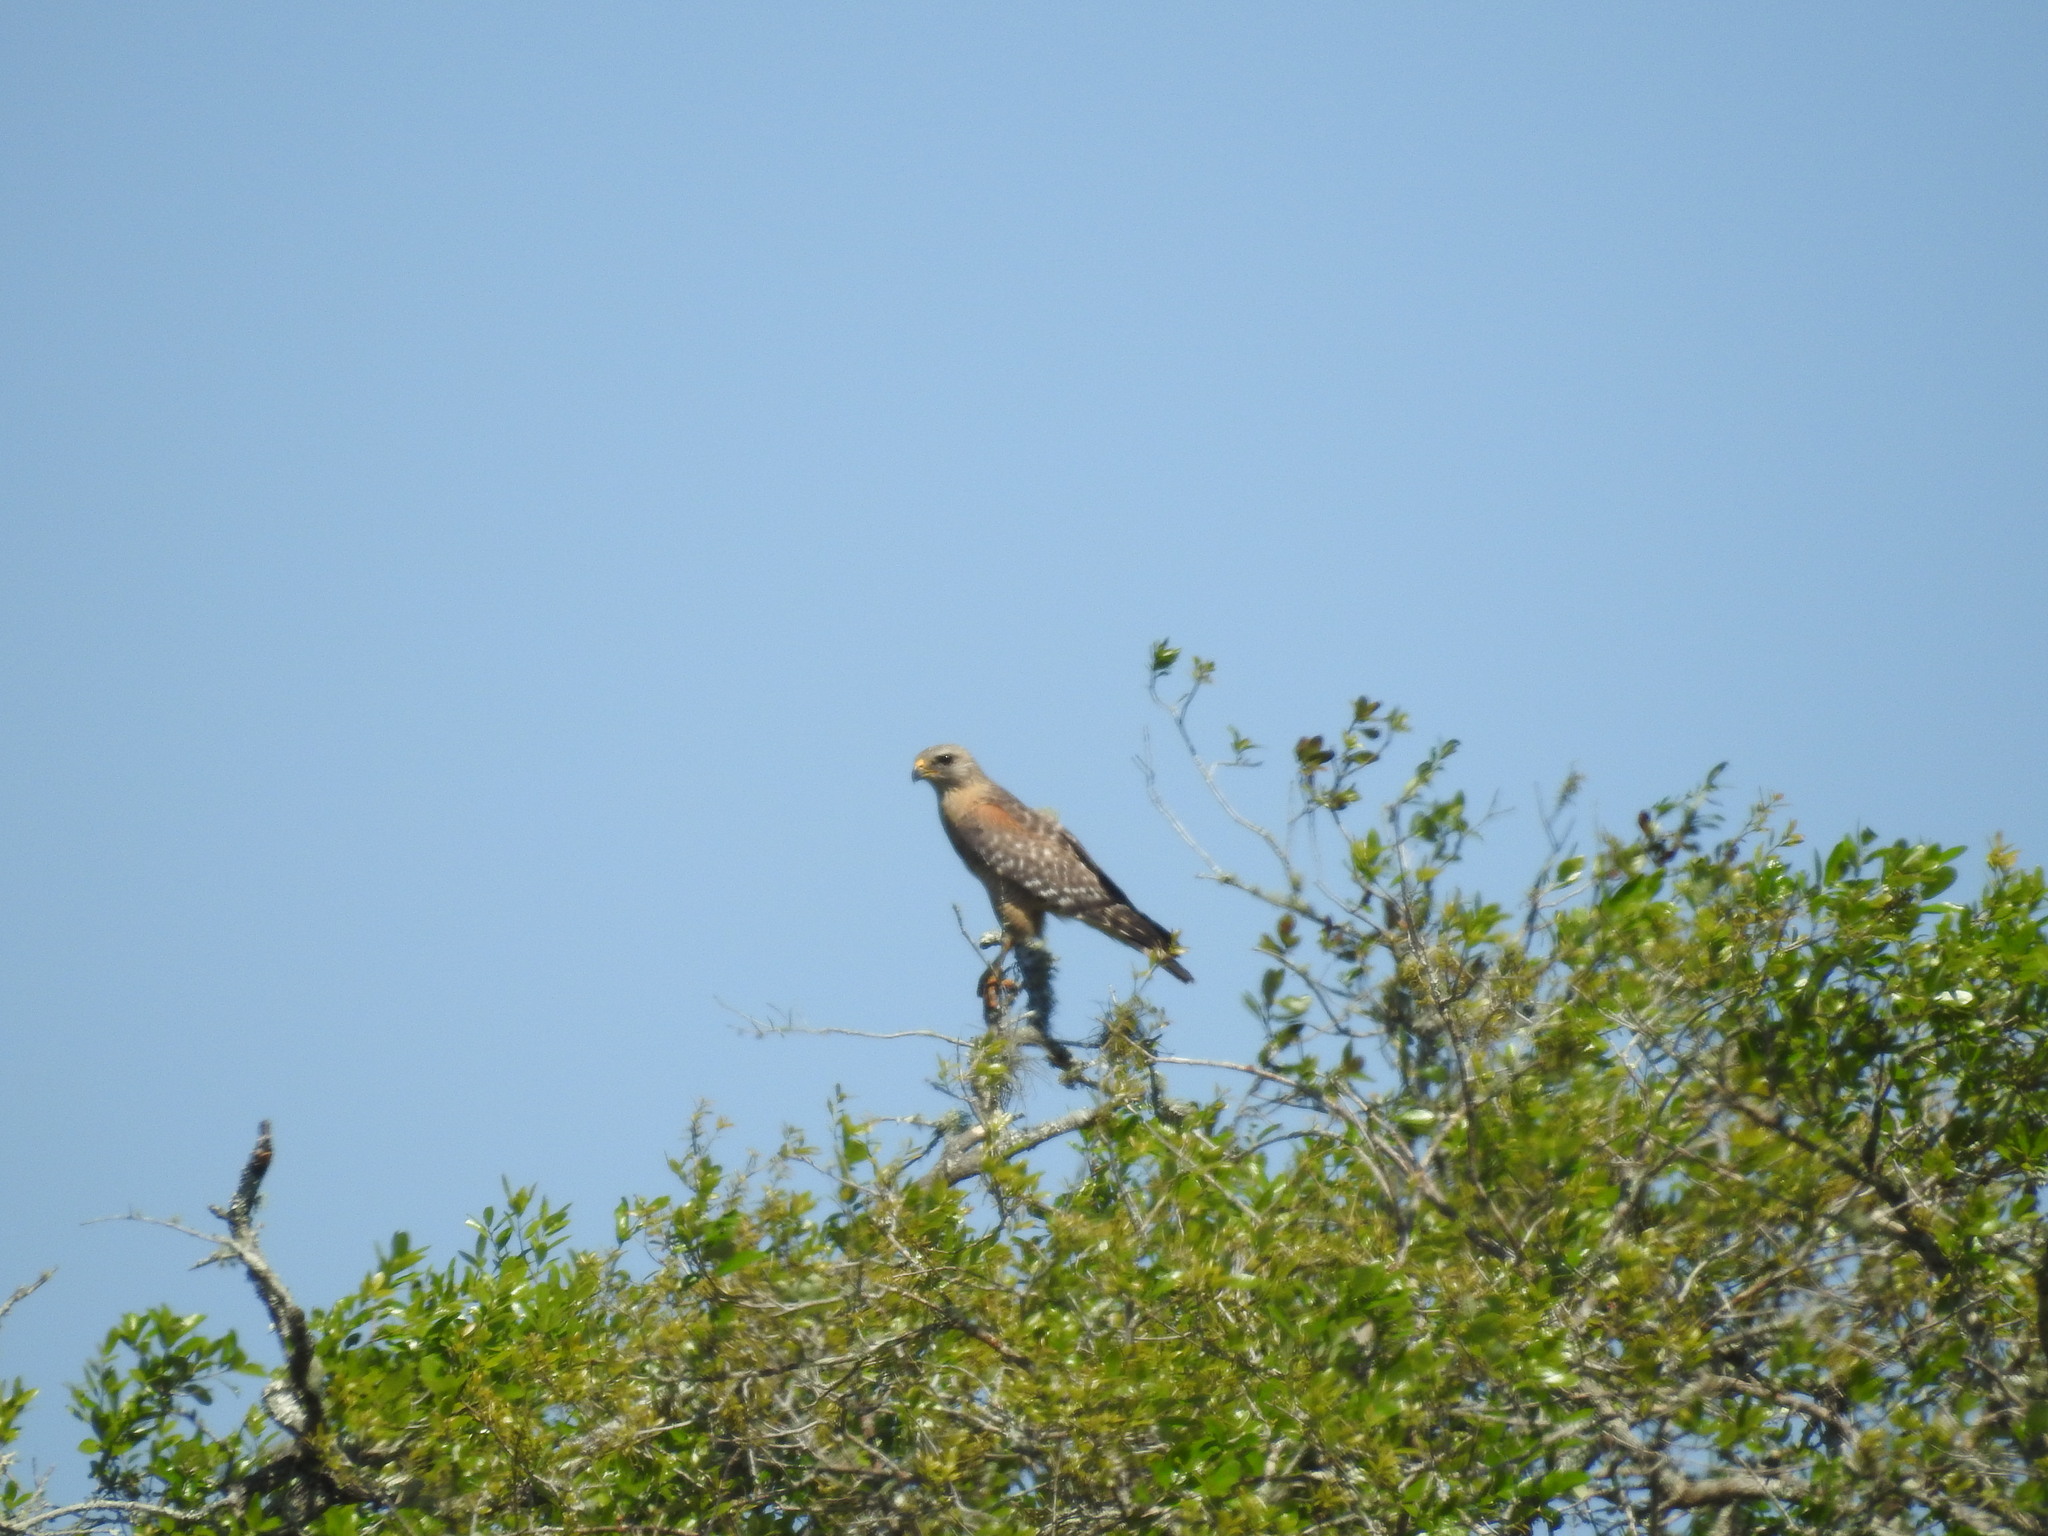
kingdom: Animalia
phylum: Chordata
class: Aves
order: Accipitriformes
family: Accipitridae
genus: Buteo
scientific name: Buteo lineatus
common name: Red-shouldered hawk
